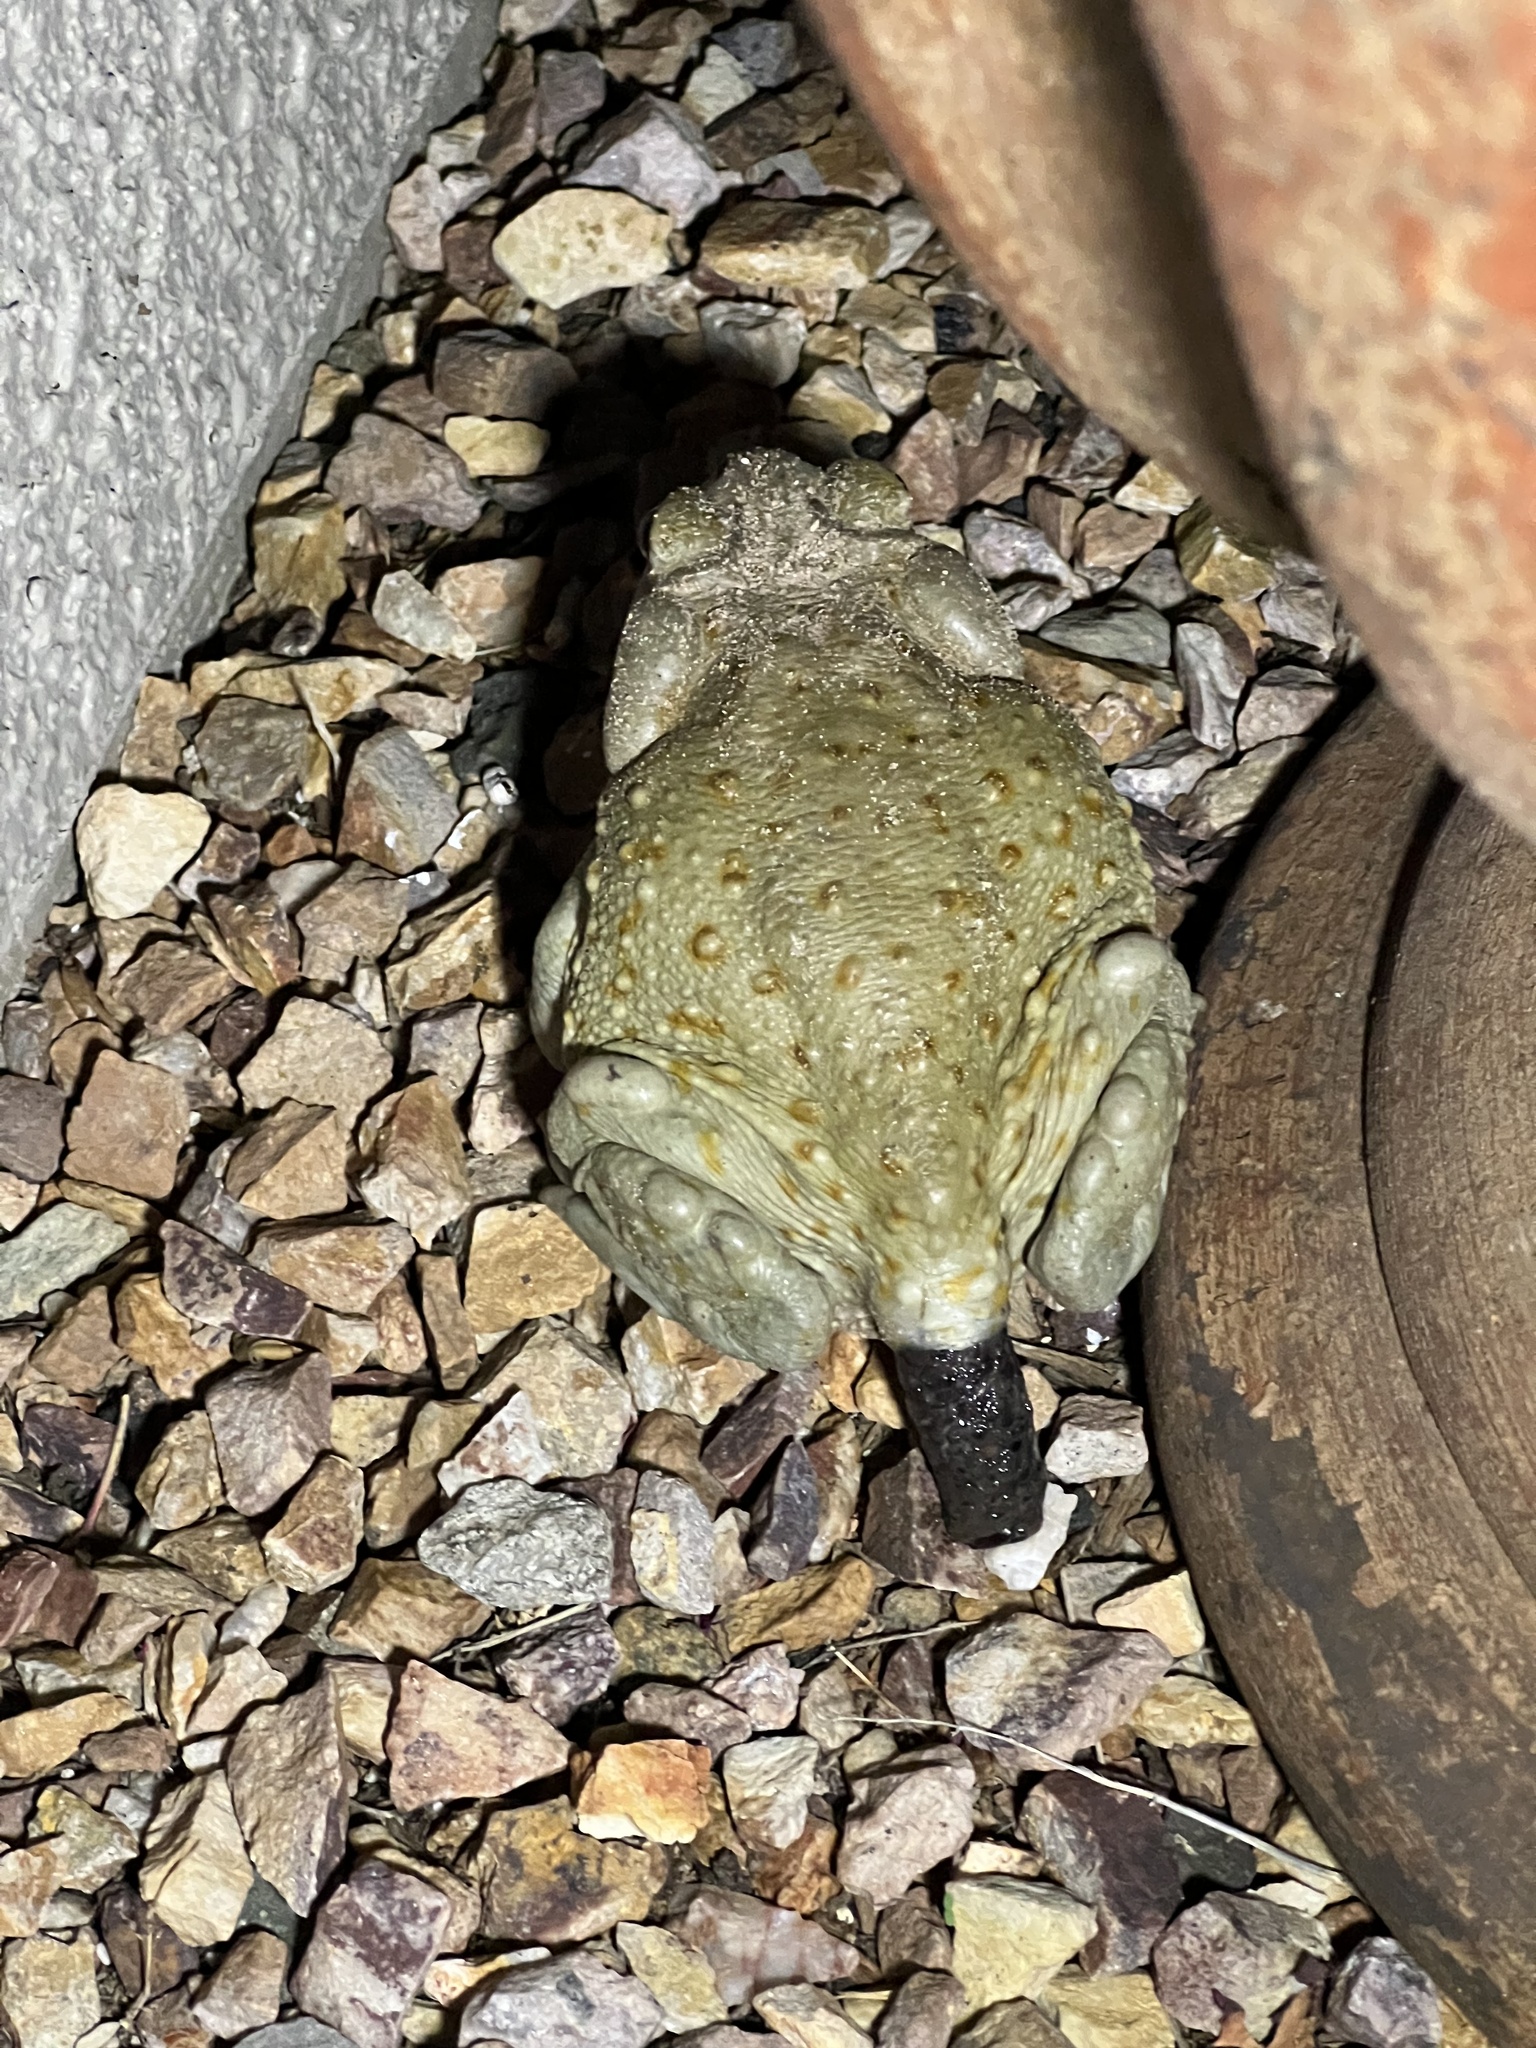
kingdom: Animalia
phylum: Chordata
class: Amphibia
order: Anura
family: Bufonidae
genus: Incilius
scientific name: Incilius alvarius
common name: Sonoran desert toad
